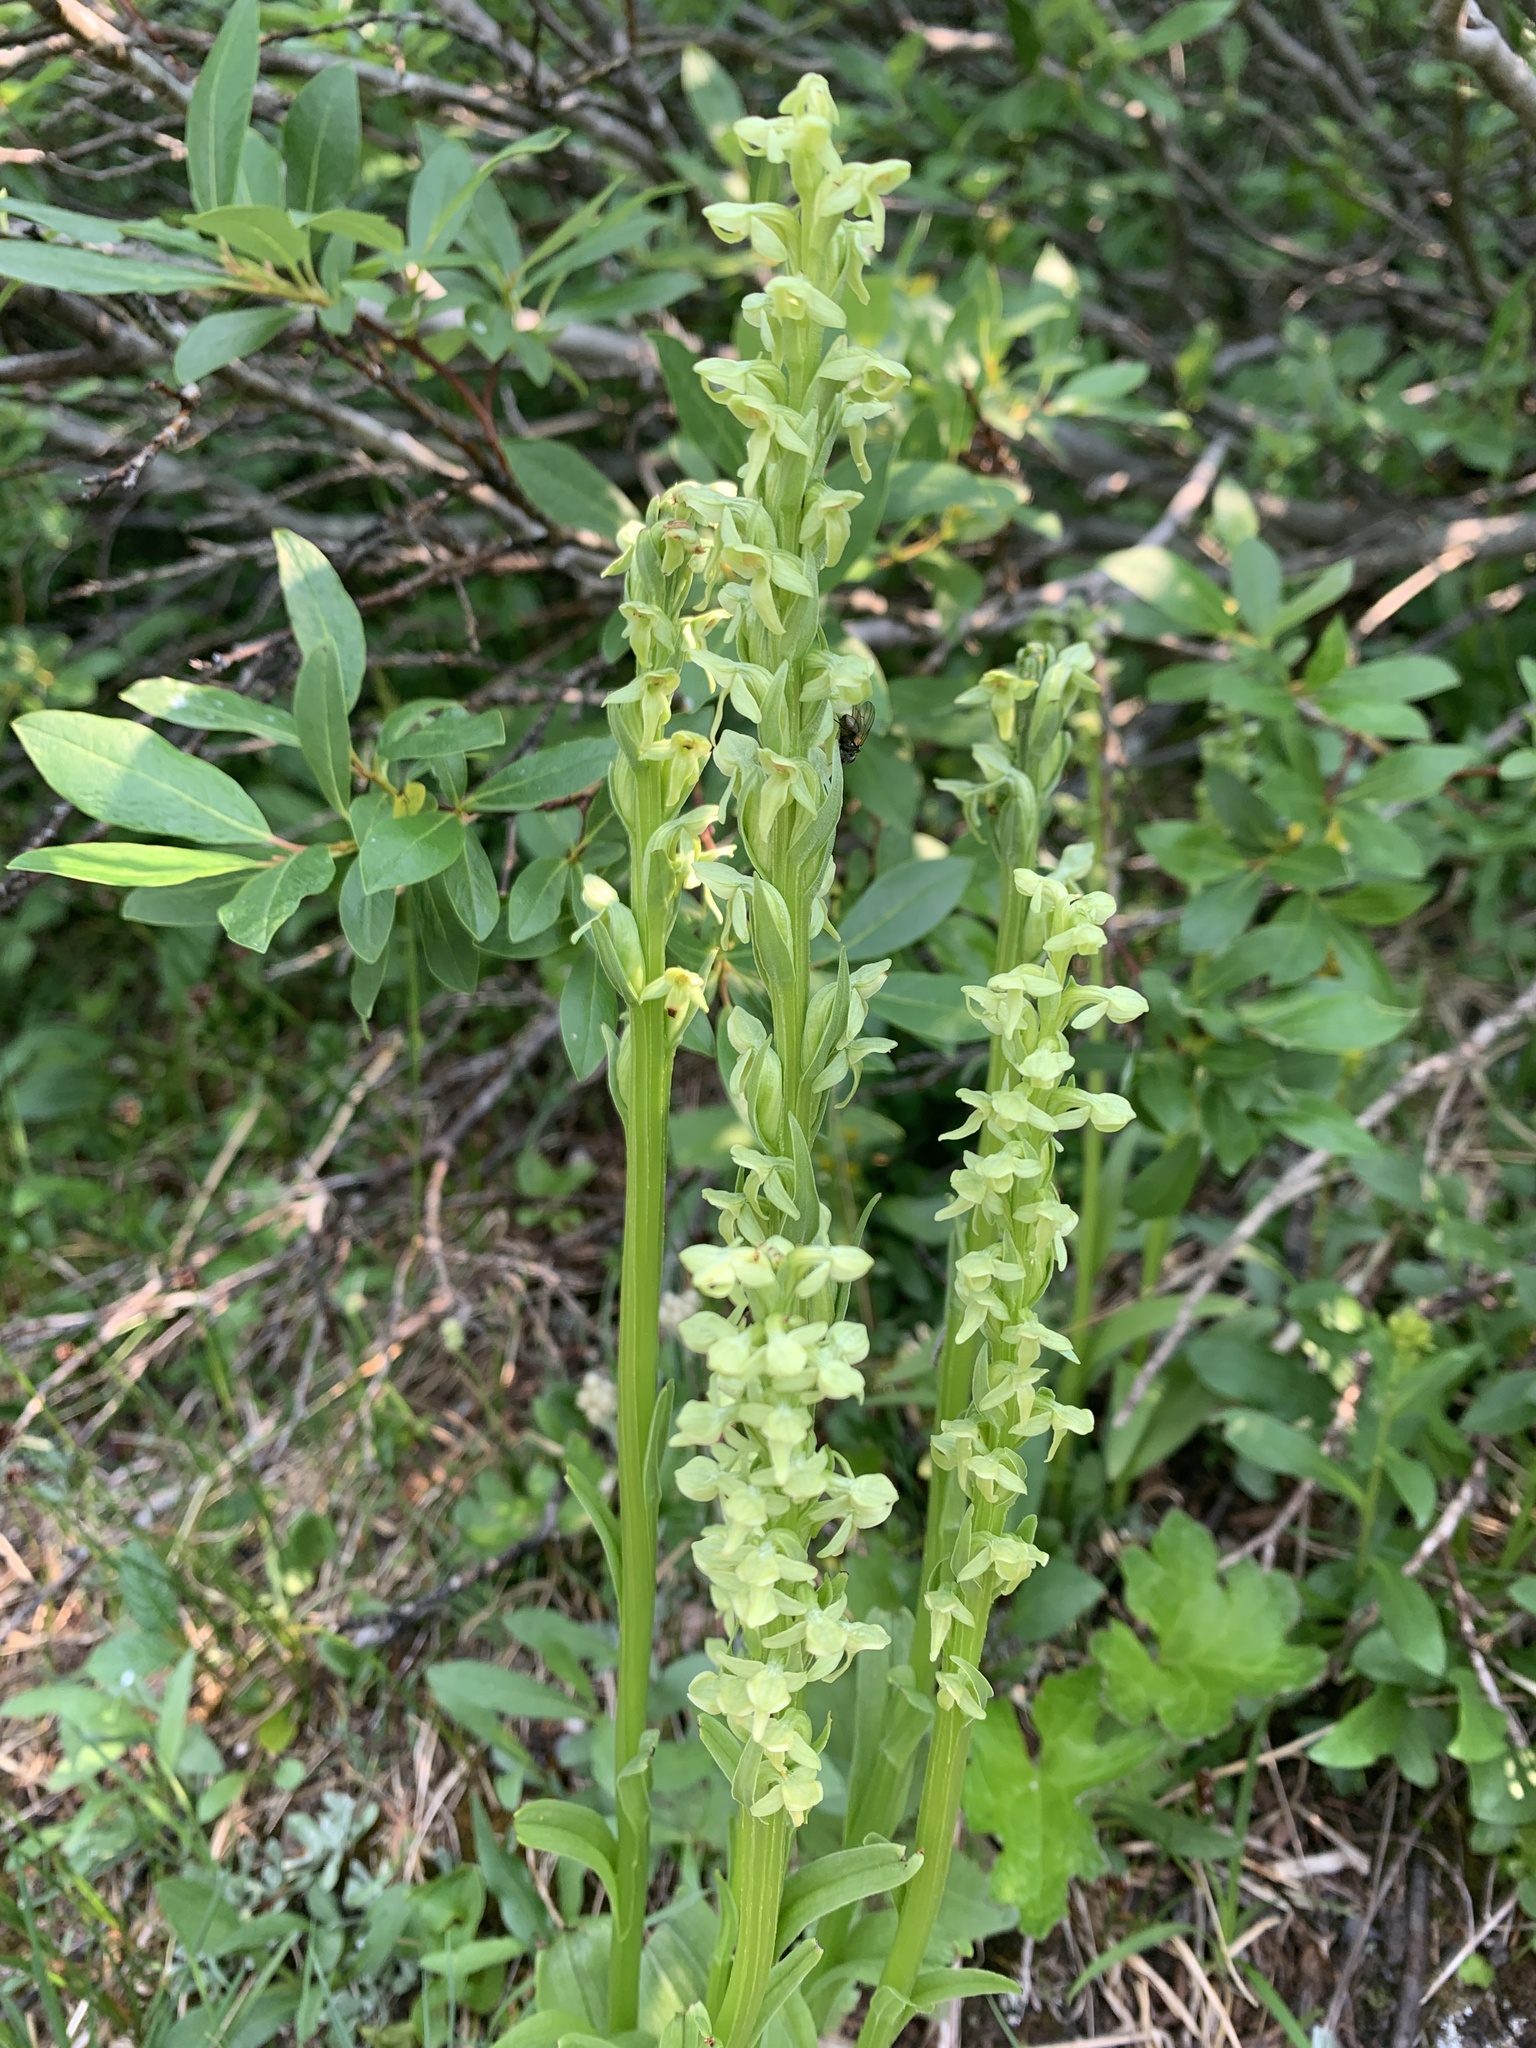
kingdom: Plantae
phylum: Tracheophyta
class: Liliopsida
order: Asparagales
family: Orchidaceae
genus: Platanthera
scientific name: Platanthera huronensis
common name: Fragrant green orchid
